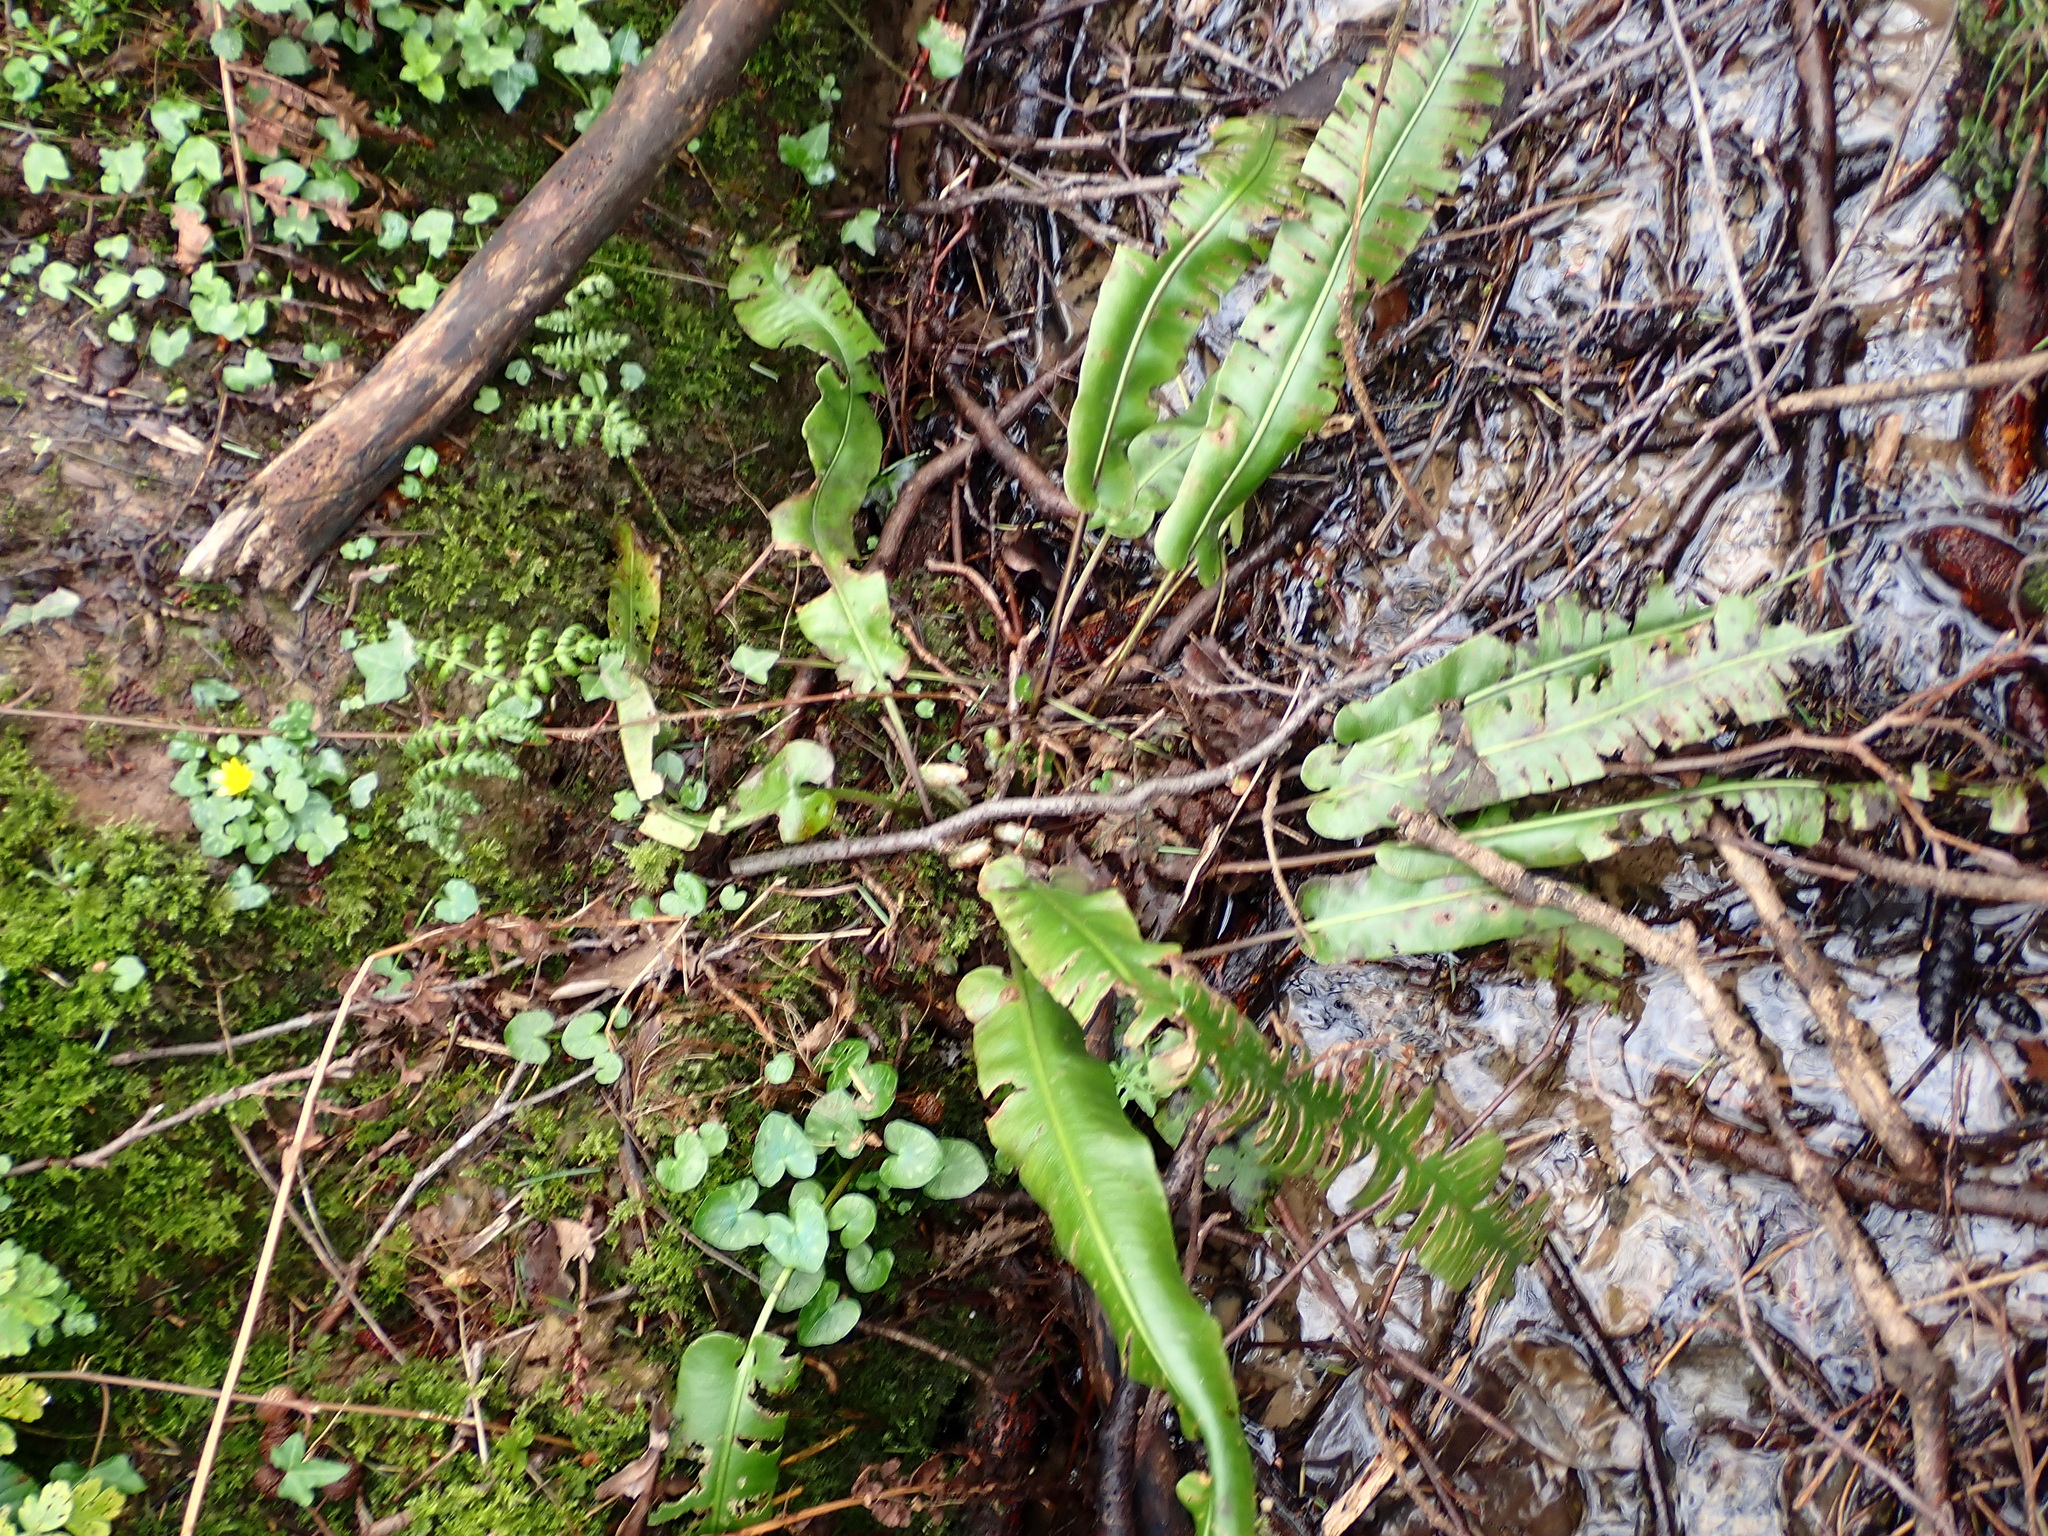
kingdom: Plantae
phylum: Tracheophyta
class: Polypodiopsida
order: Polypodiales
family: Aspleniaceae
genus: Asplenium
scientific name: Asplenium scolopendrium
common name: Hart's-tongue fern
